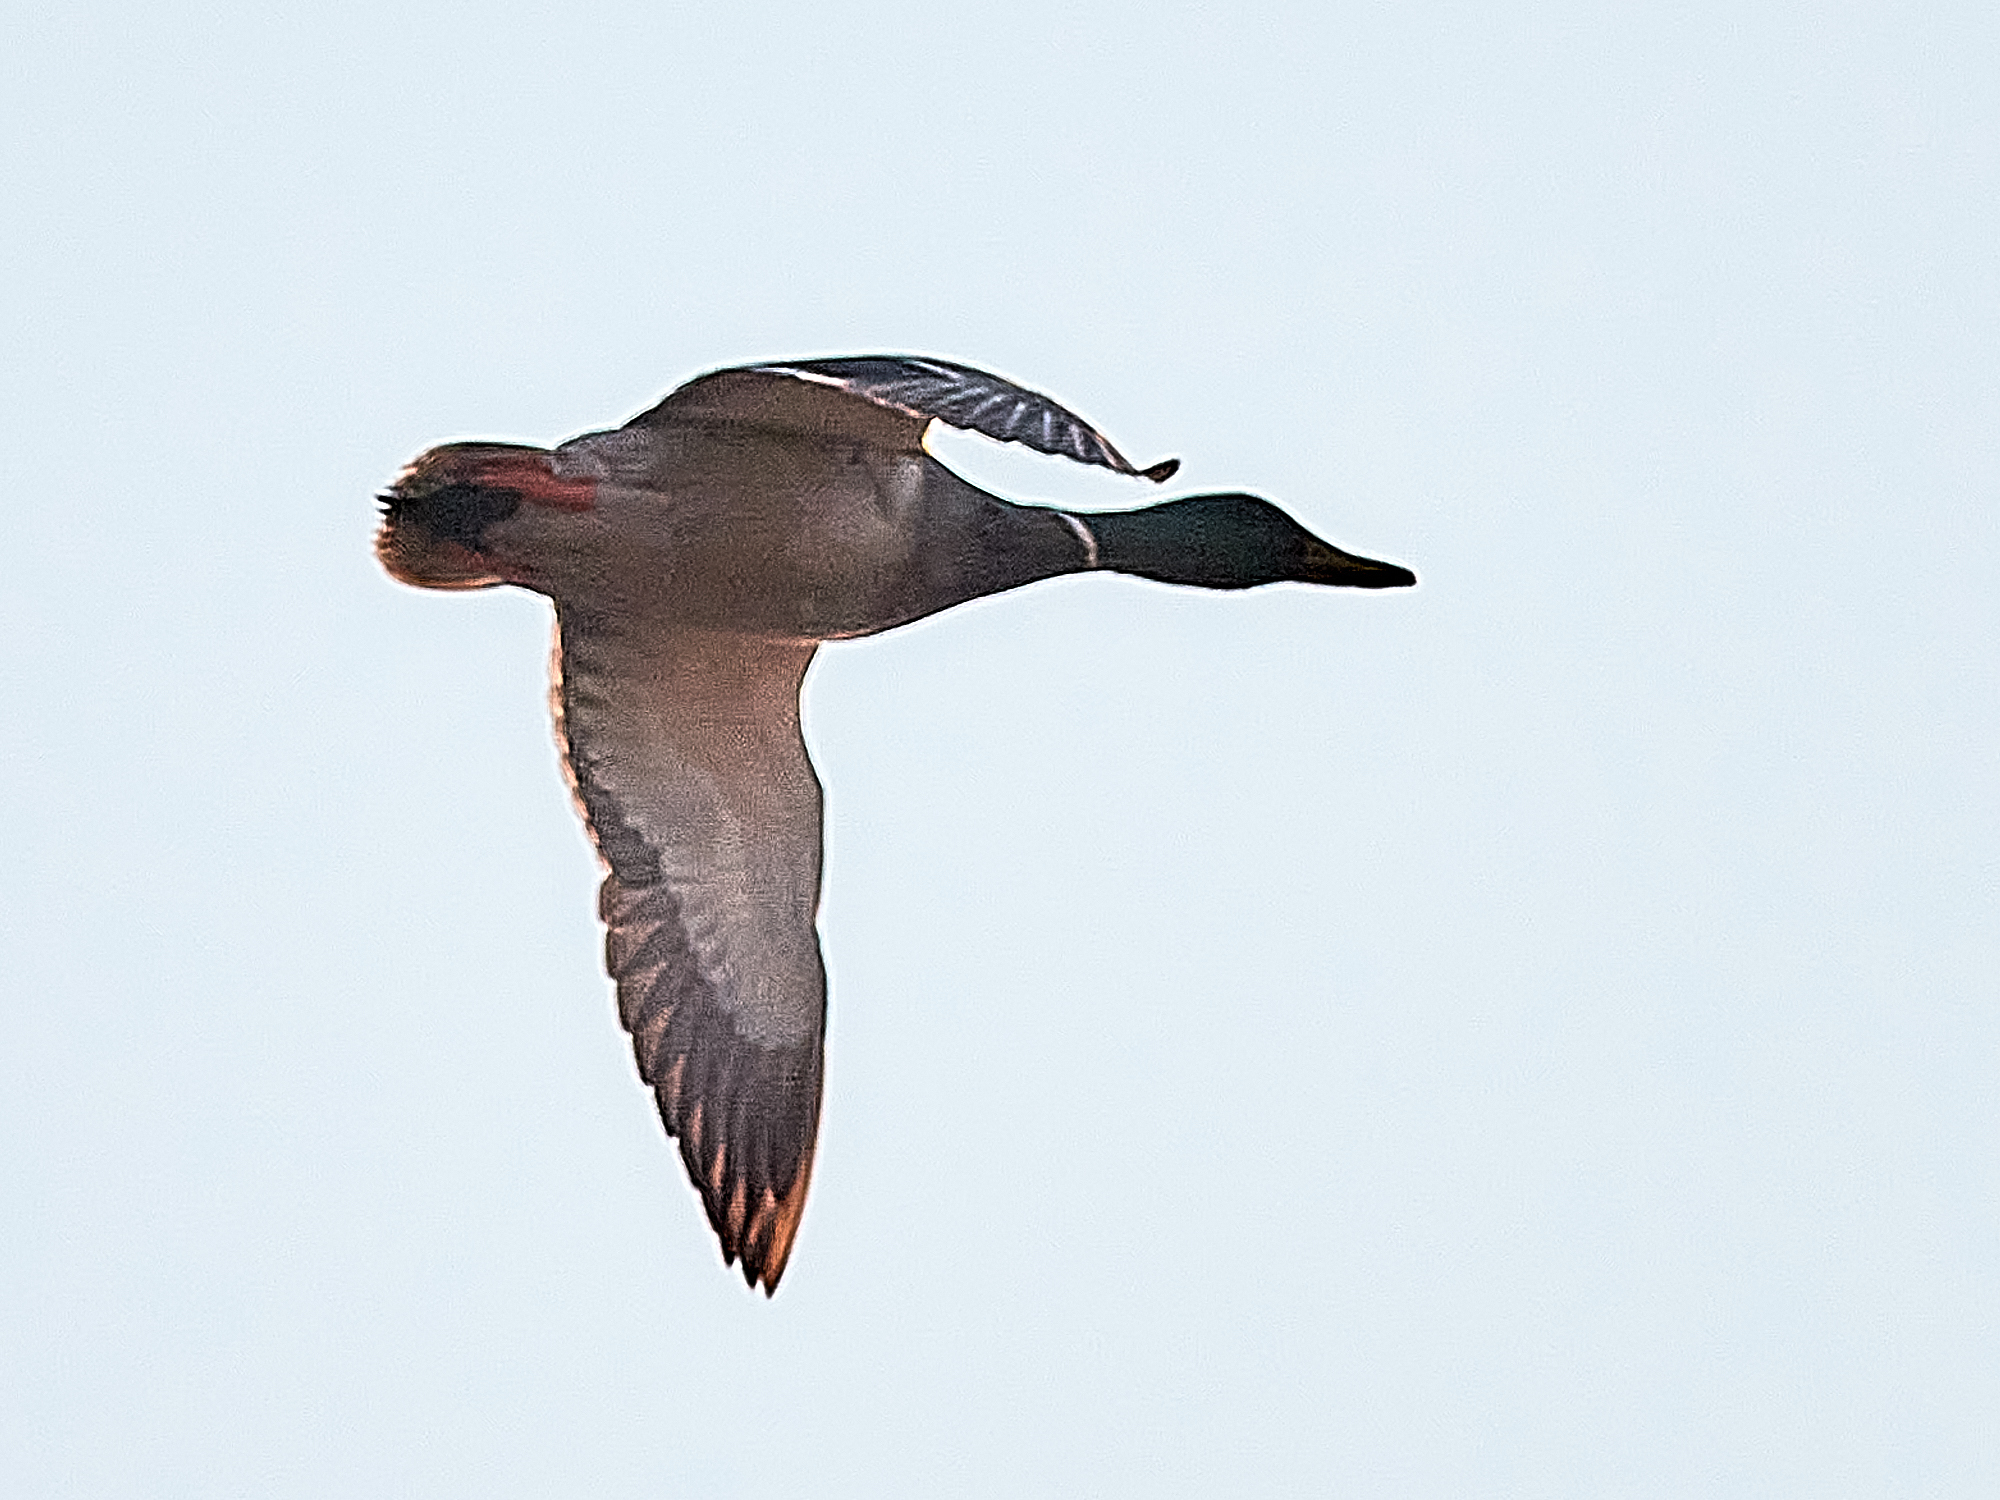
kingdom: Animalia
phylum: Chordata
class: Aves
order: Anseriformes
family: Anatidae
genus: Anas
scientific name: Anas platyrhynchos
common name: Mallard
